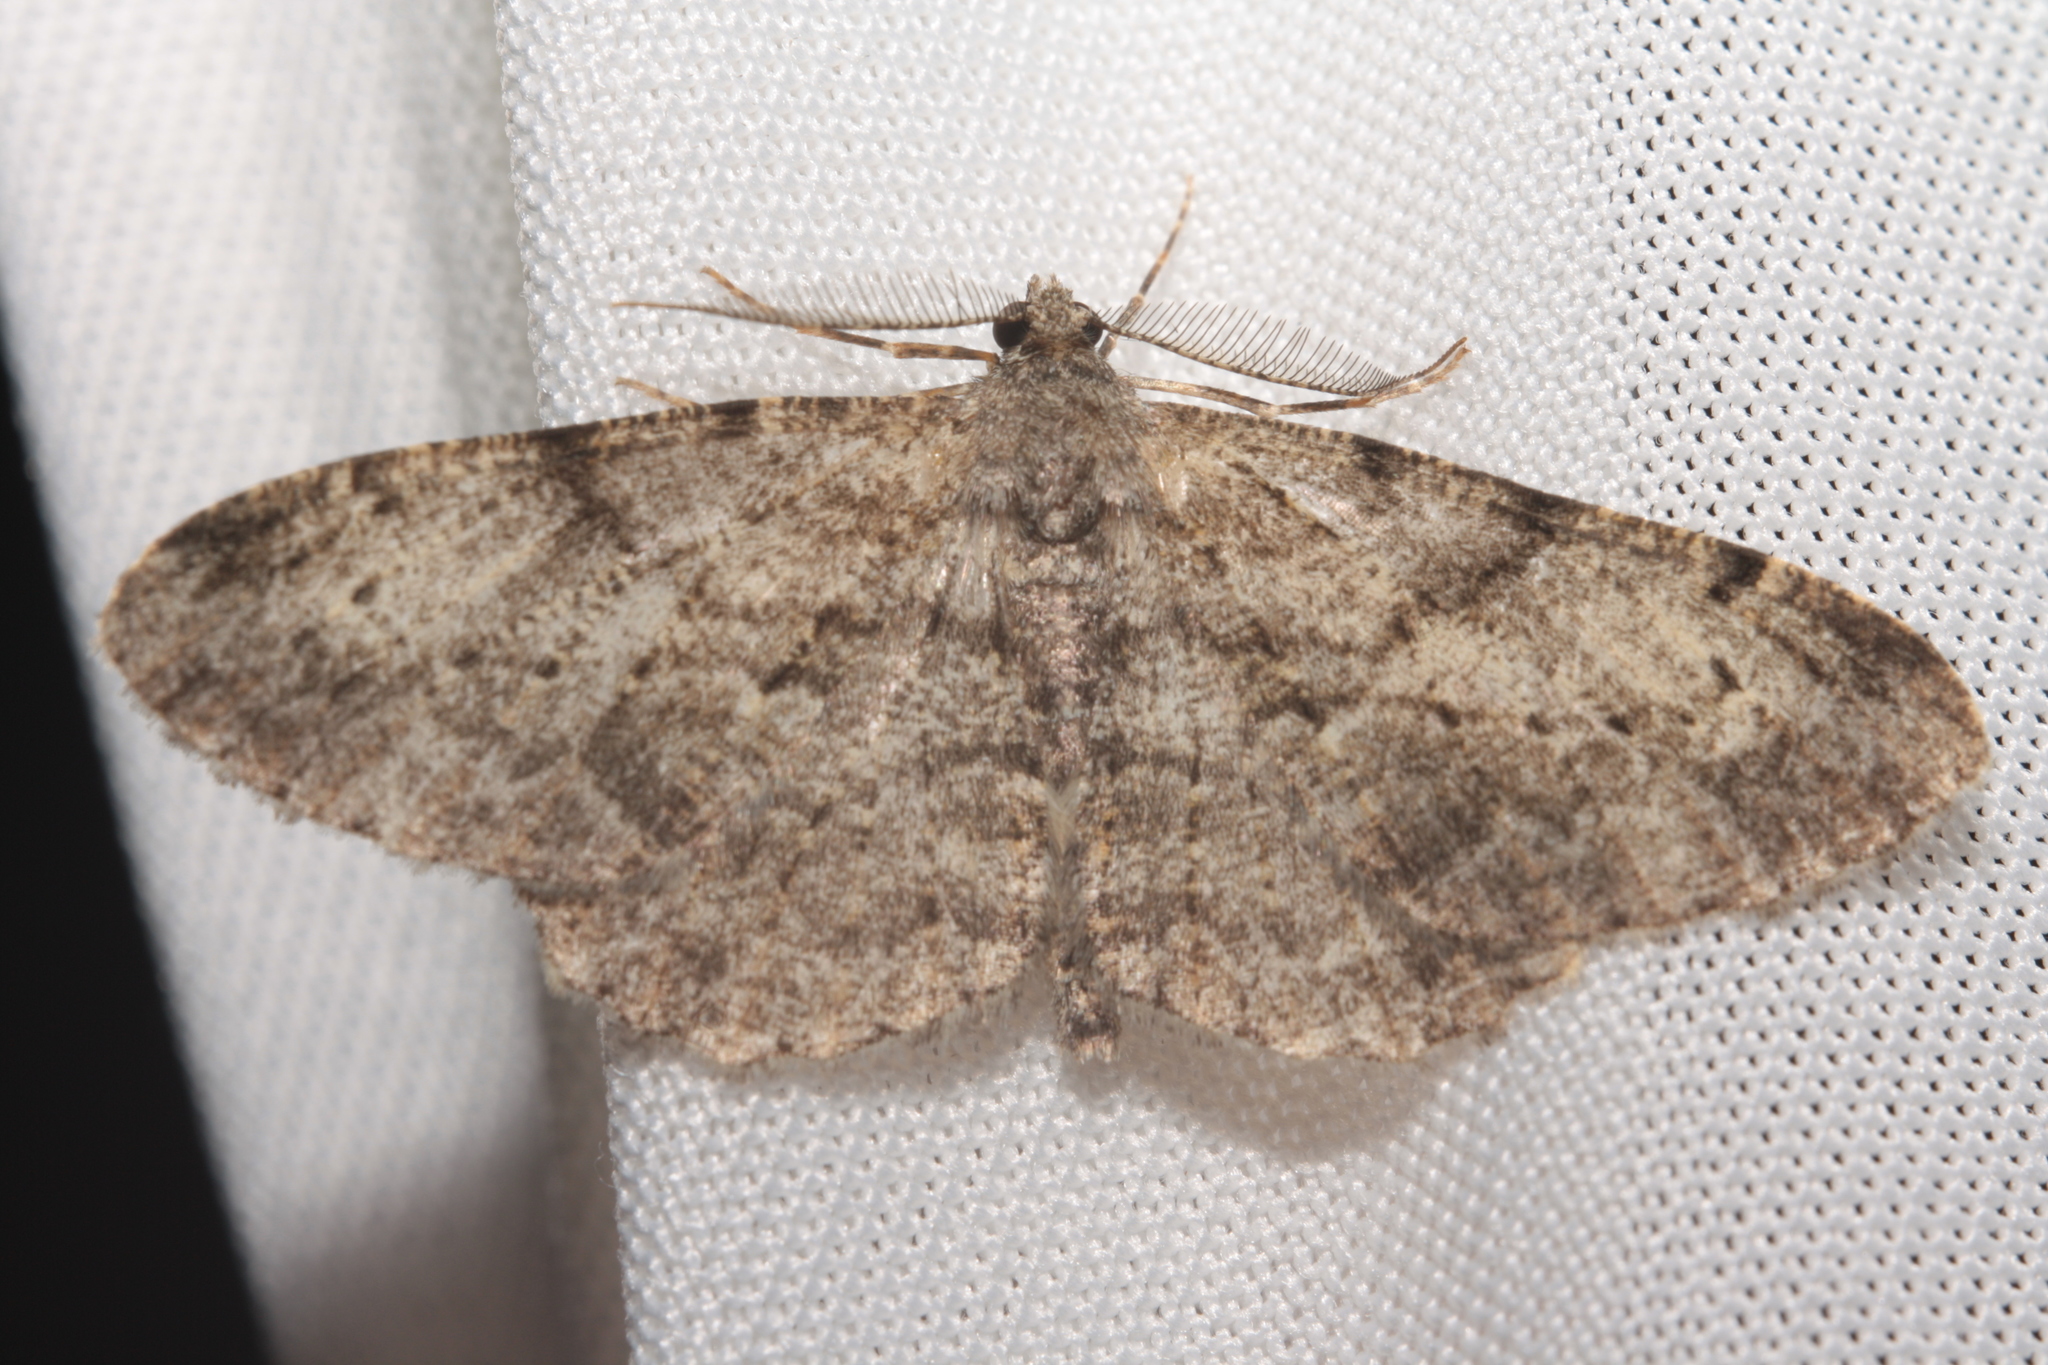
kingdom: Animalia
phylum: Arthropoda
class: Insecta
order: Lepidoptera
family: Geometridae
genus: Peribatodes
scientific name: Peribatodes rhomboidaria
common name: Willow beauty
